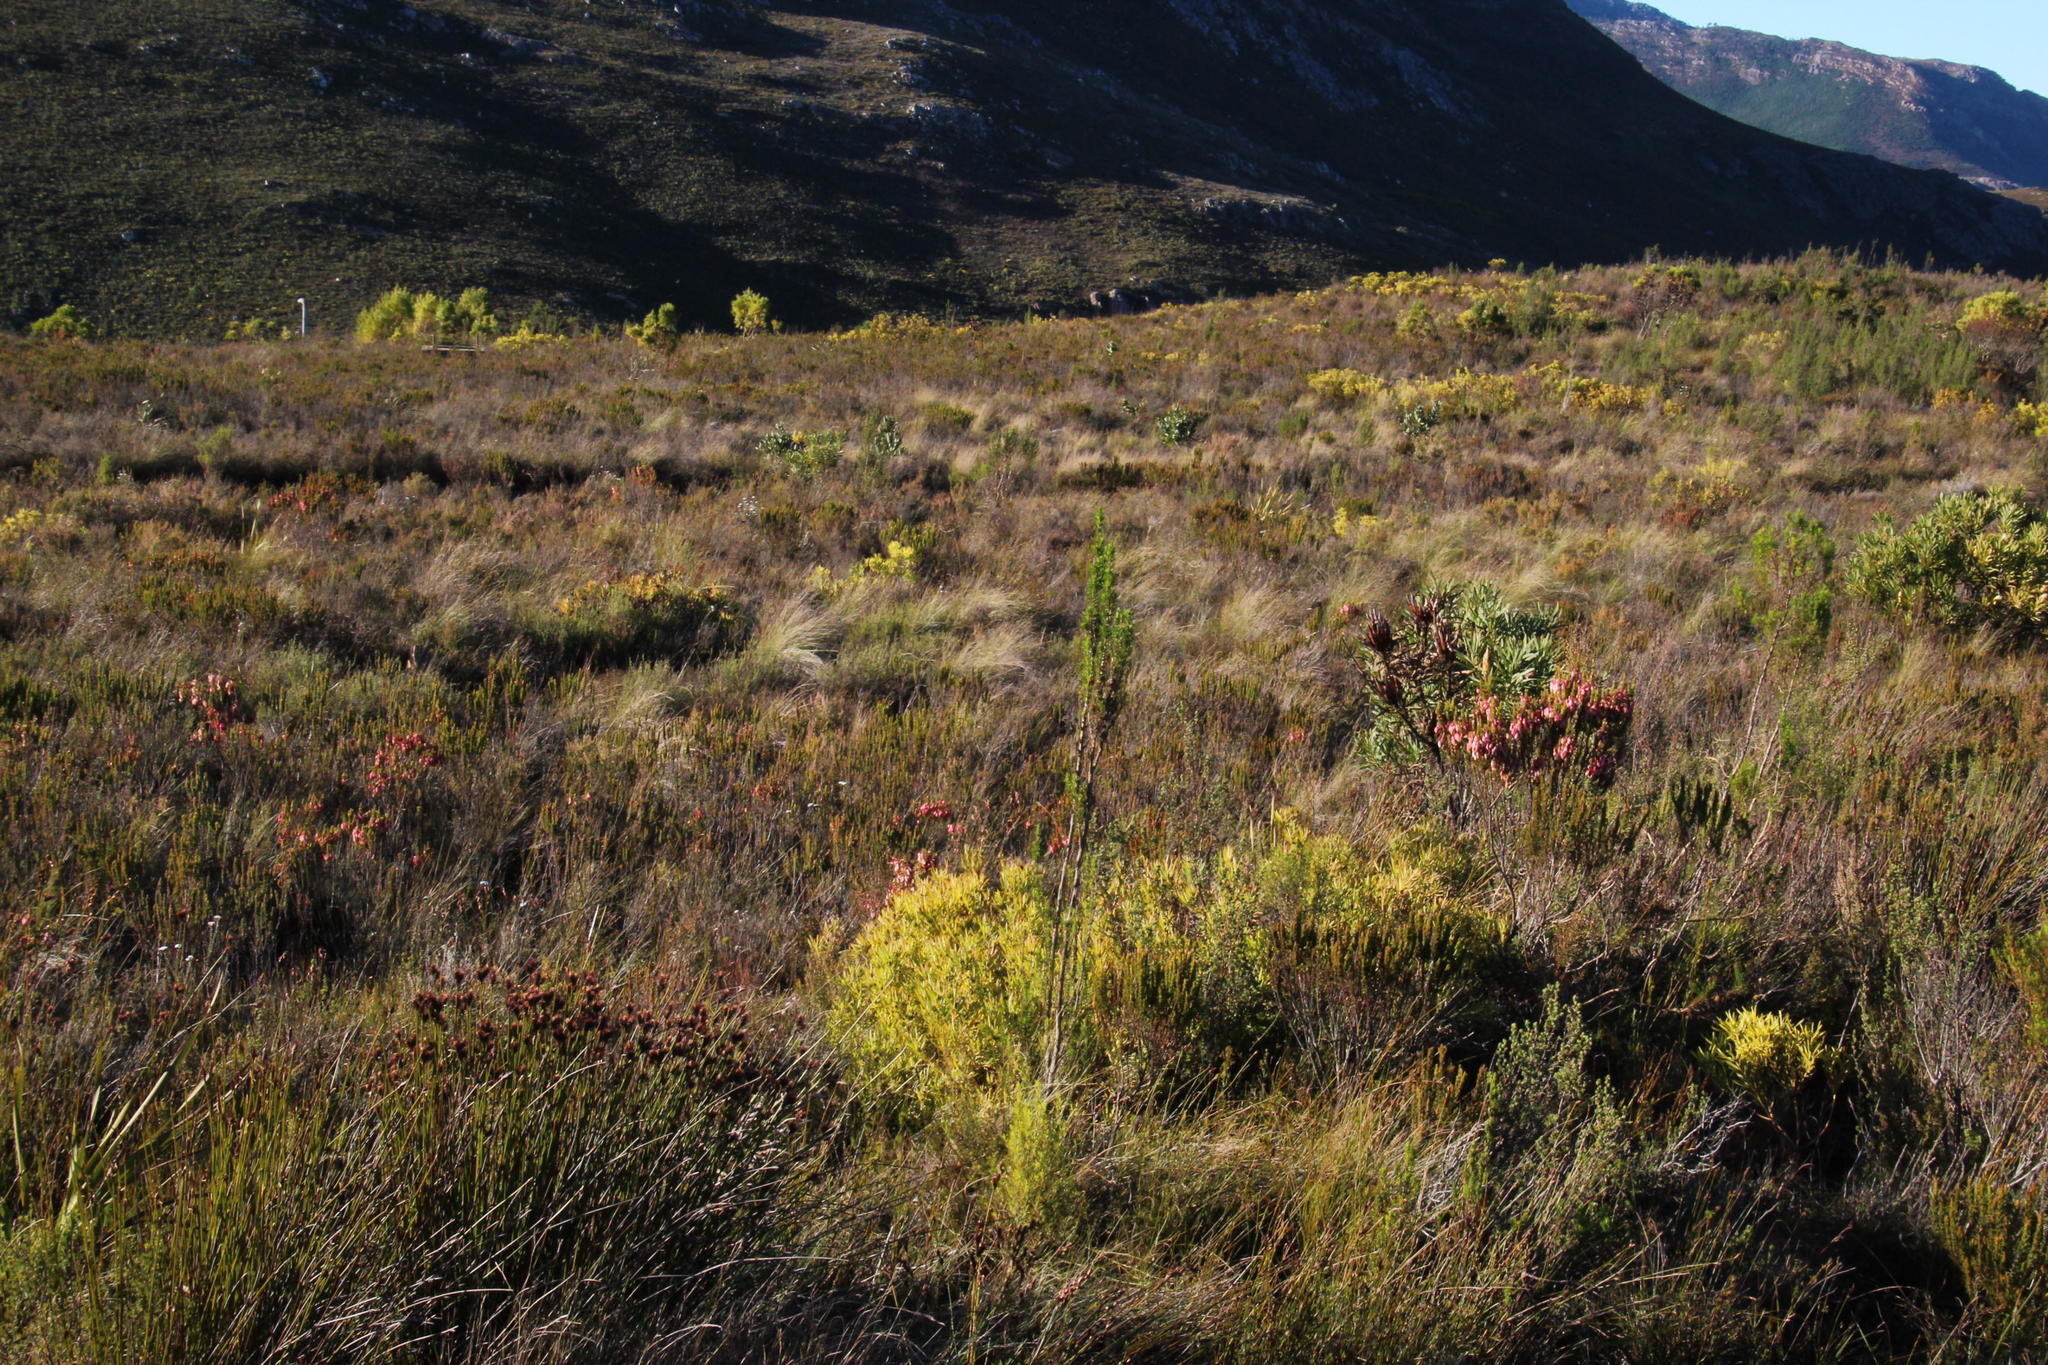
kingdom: Plantae
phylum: Tracheophyta
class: Magnoliopsida
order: Proteales
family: Proteaceae
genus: Leucadendron
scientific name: Leucadendron salignum
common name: Common sunshine conebush
